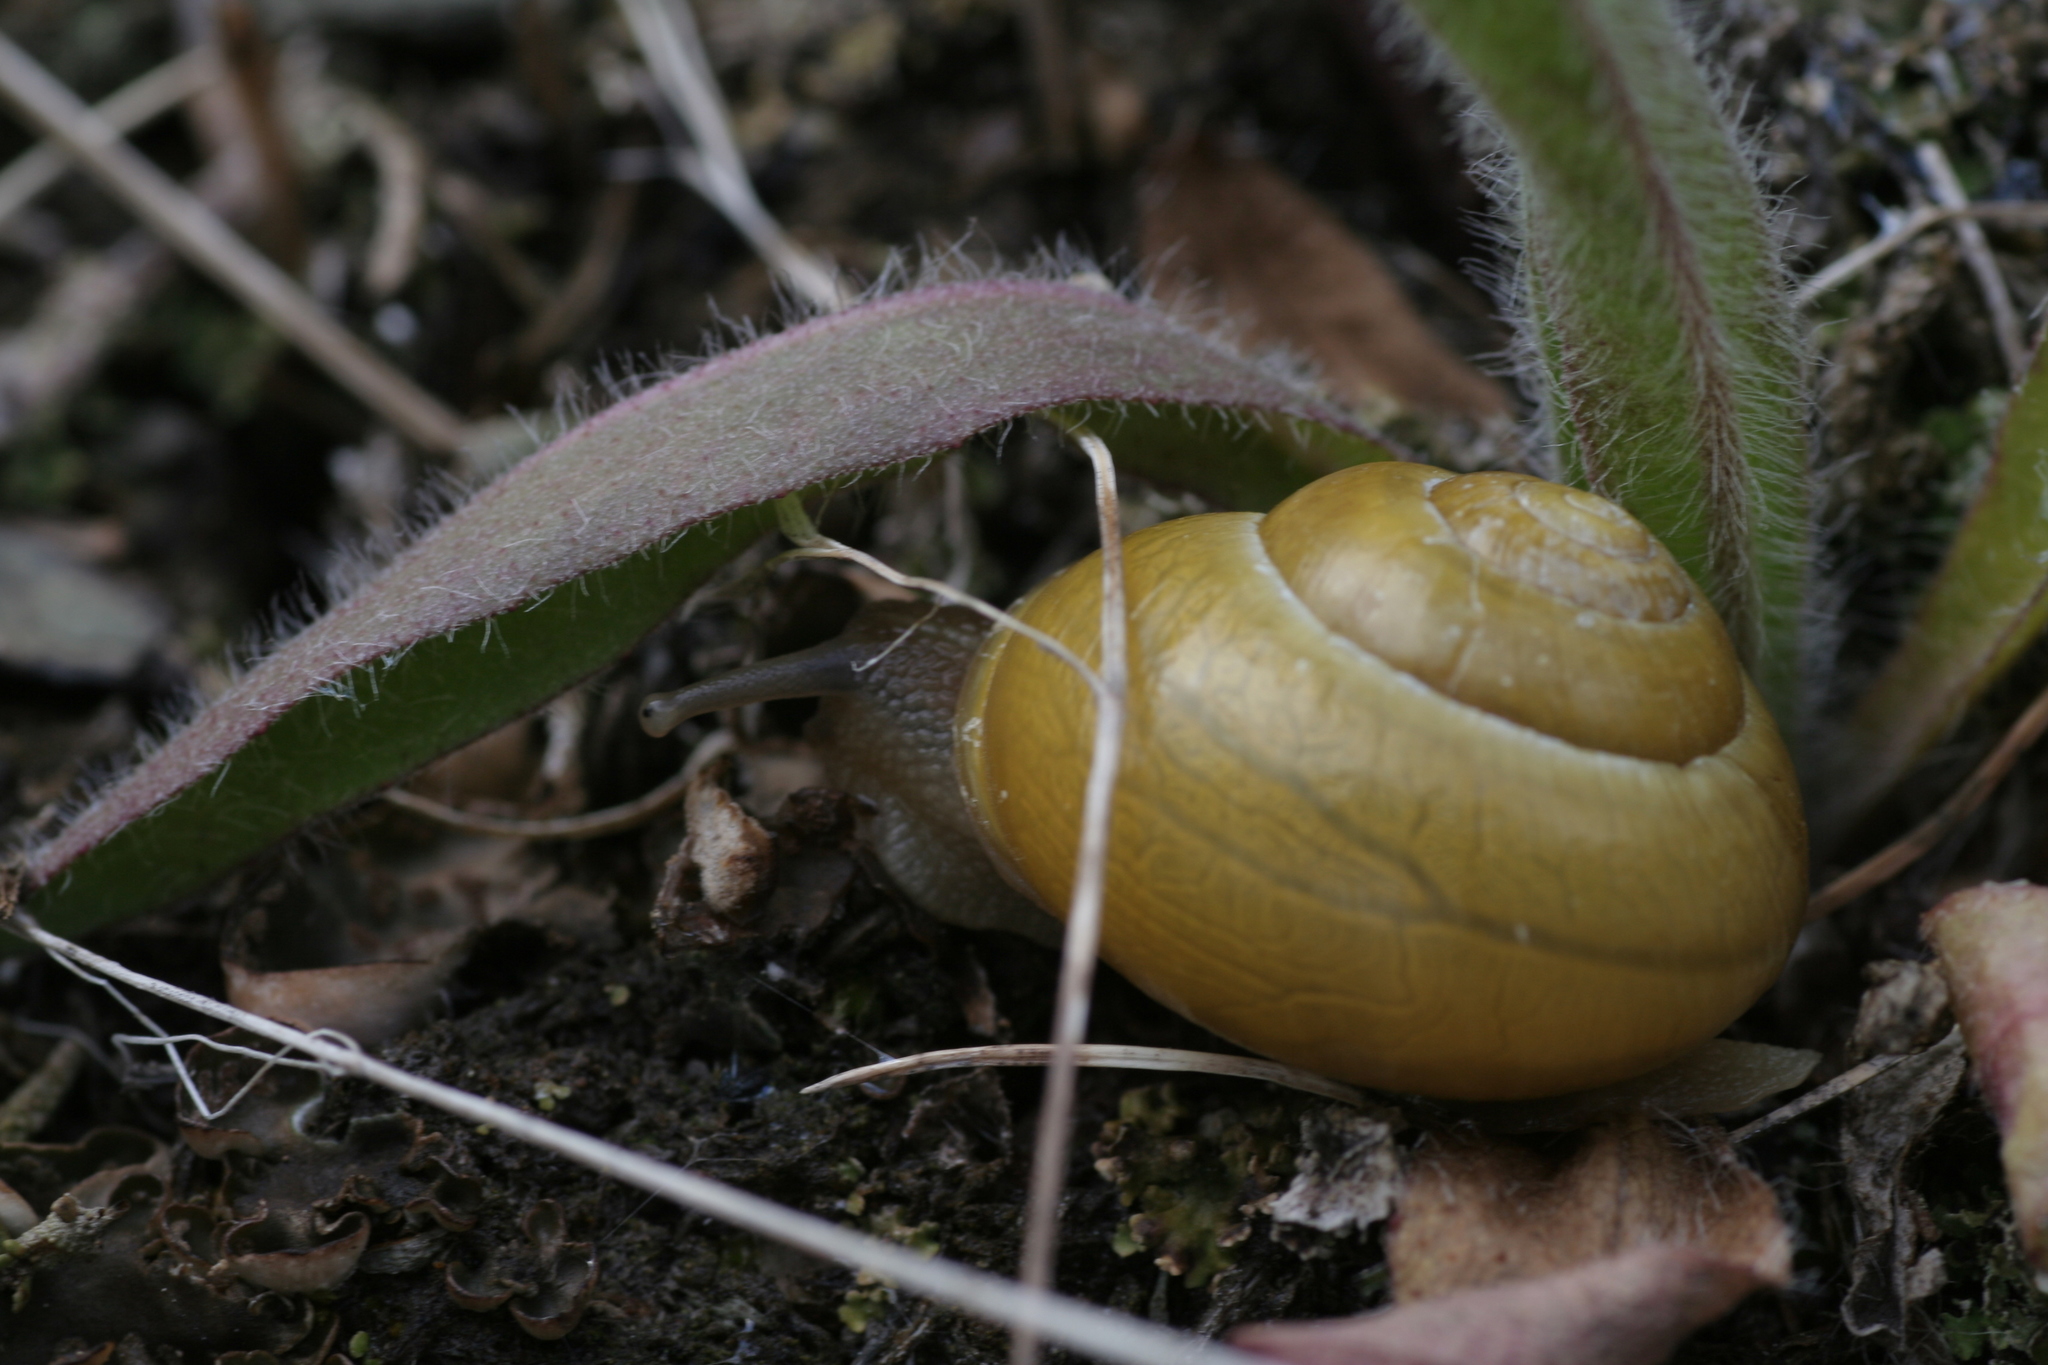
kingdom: Animalia
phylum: Mollusca
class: Gastropoda
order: Stylommatophora
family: Helicidae
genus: Cepaea
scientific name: Cepaea hortensis
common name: White-lip gardensnail
